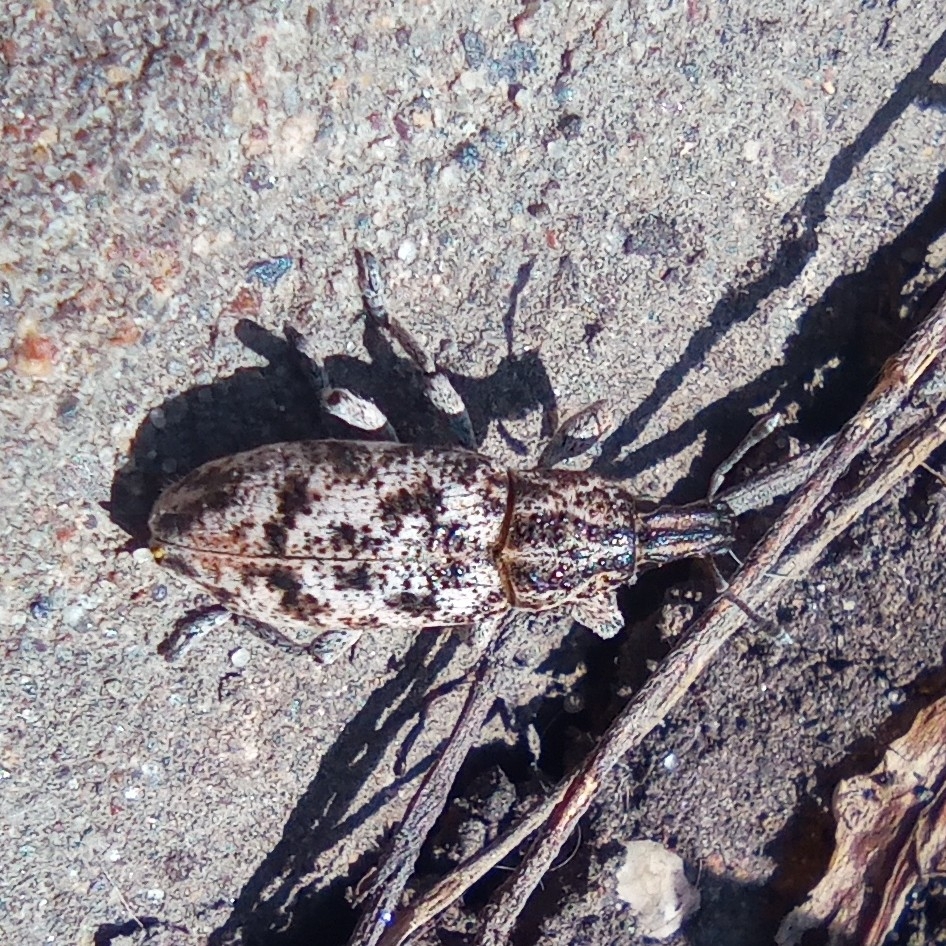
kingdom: Animalia
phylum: Arthropoda
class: Insecta
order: Coleoptera
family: Curculionidae
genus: Cyphocleonus
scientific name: Cyphocleonus dealbatus
